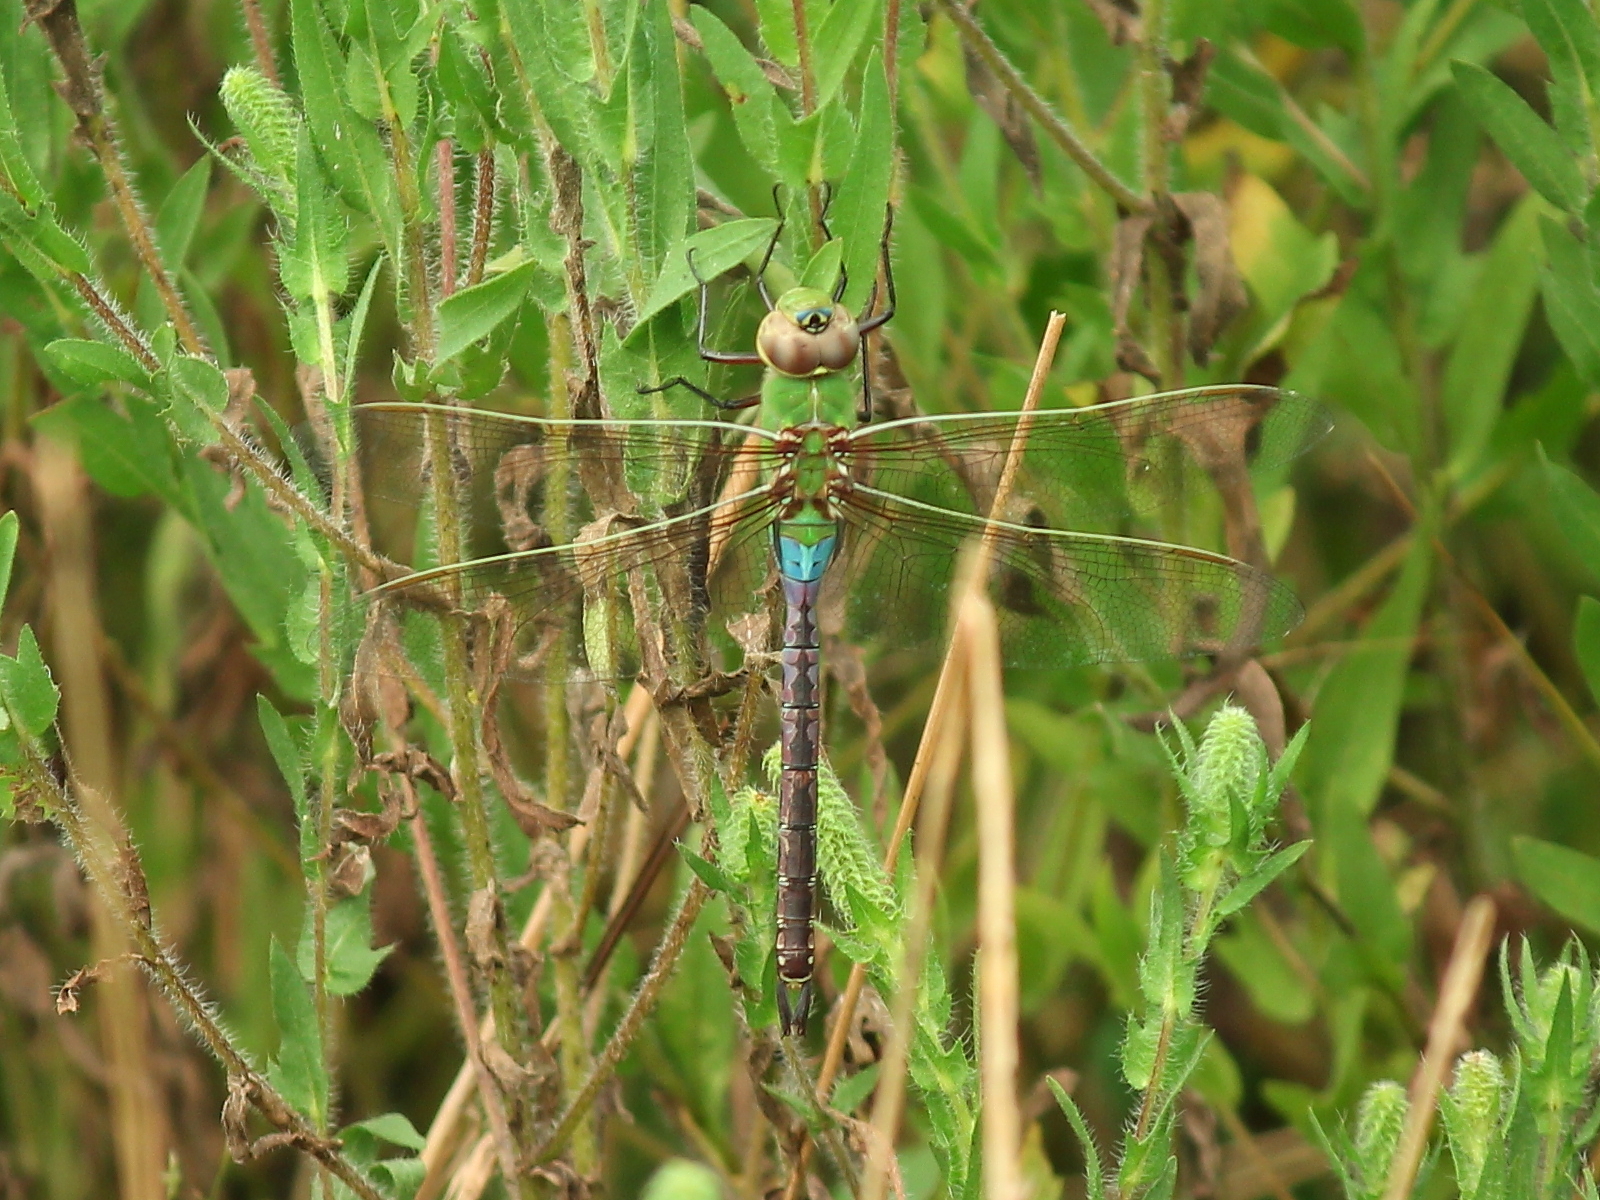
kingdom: Animalia
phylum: Arthropoda
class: Insecta
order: Odonata
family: Aeshnidae
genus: Anax
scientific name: Anax junius
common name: Common green darner
